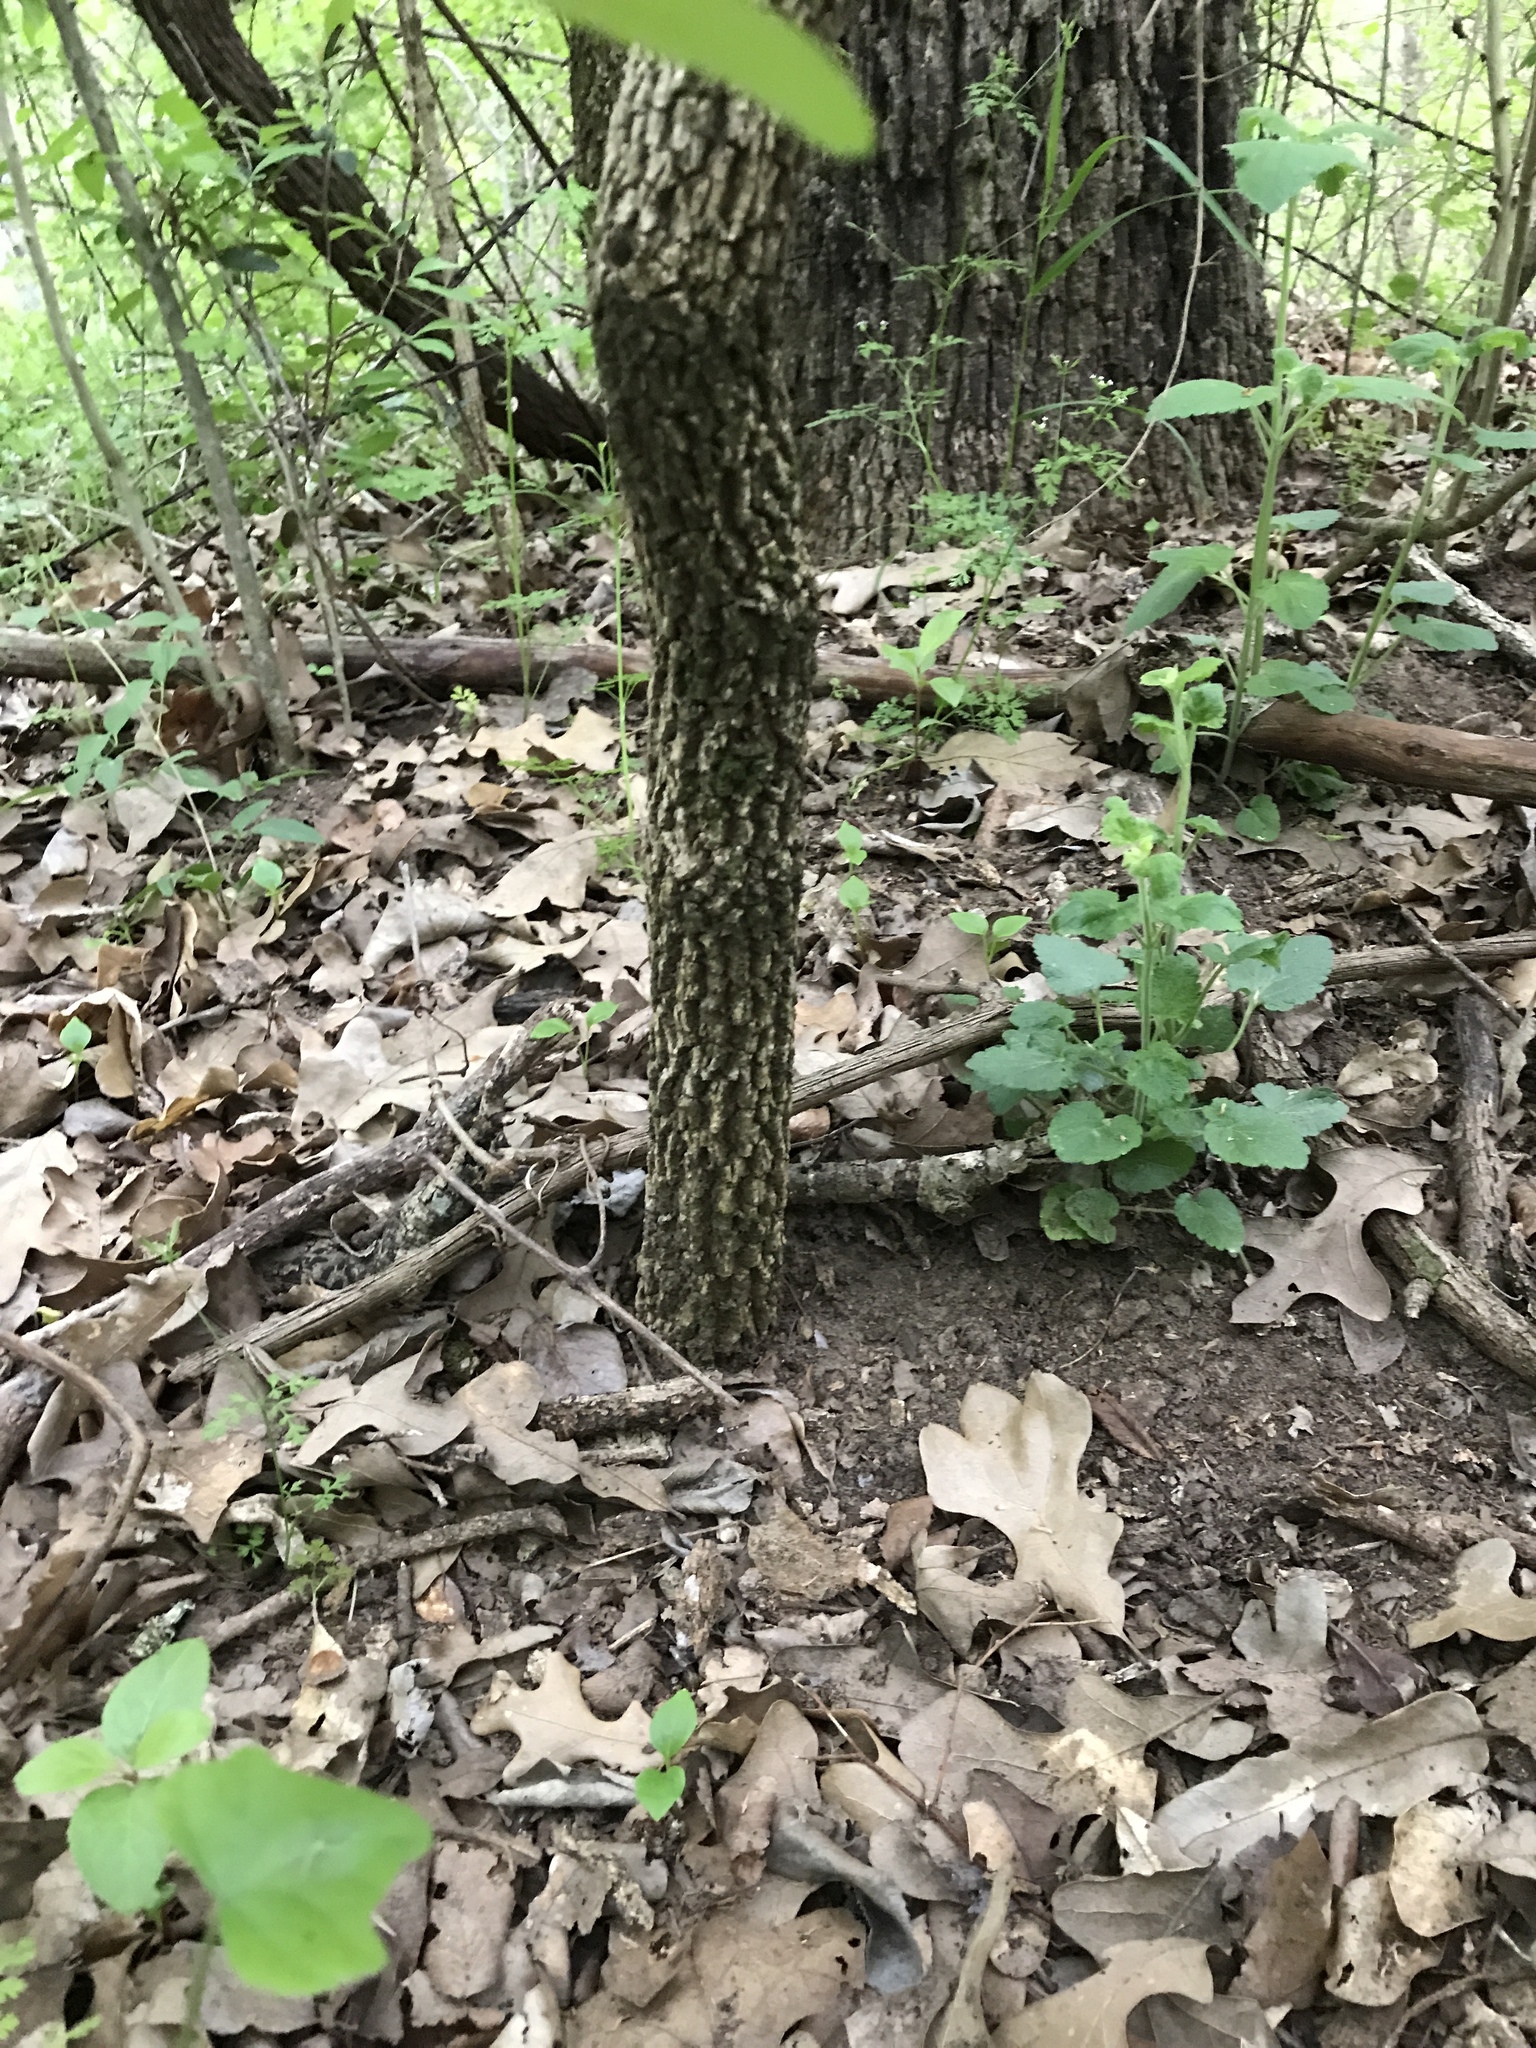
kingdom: Plantae
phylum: Tracheophyta
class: Magnoliopsida
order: Dipsacales
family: Viburnaceae
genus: Viburnum
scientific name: Viburnum rufidulum
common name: Blue haw
